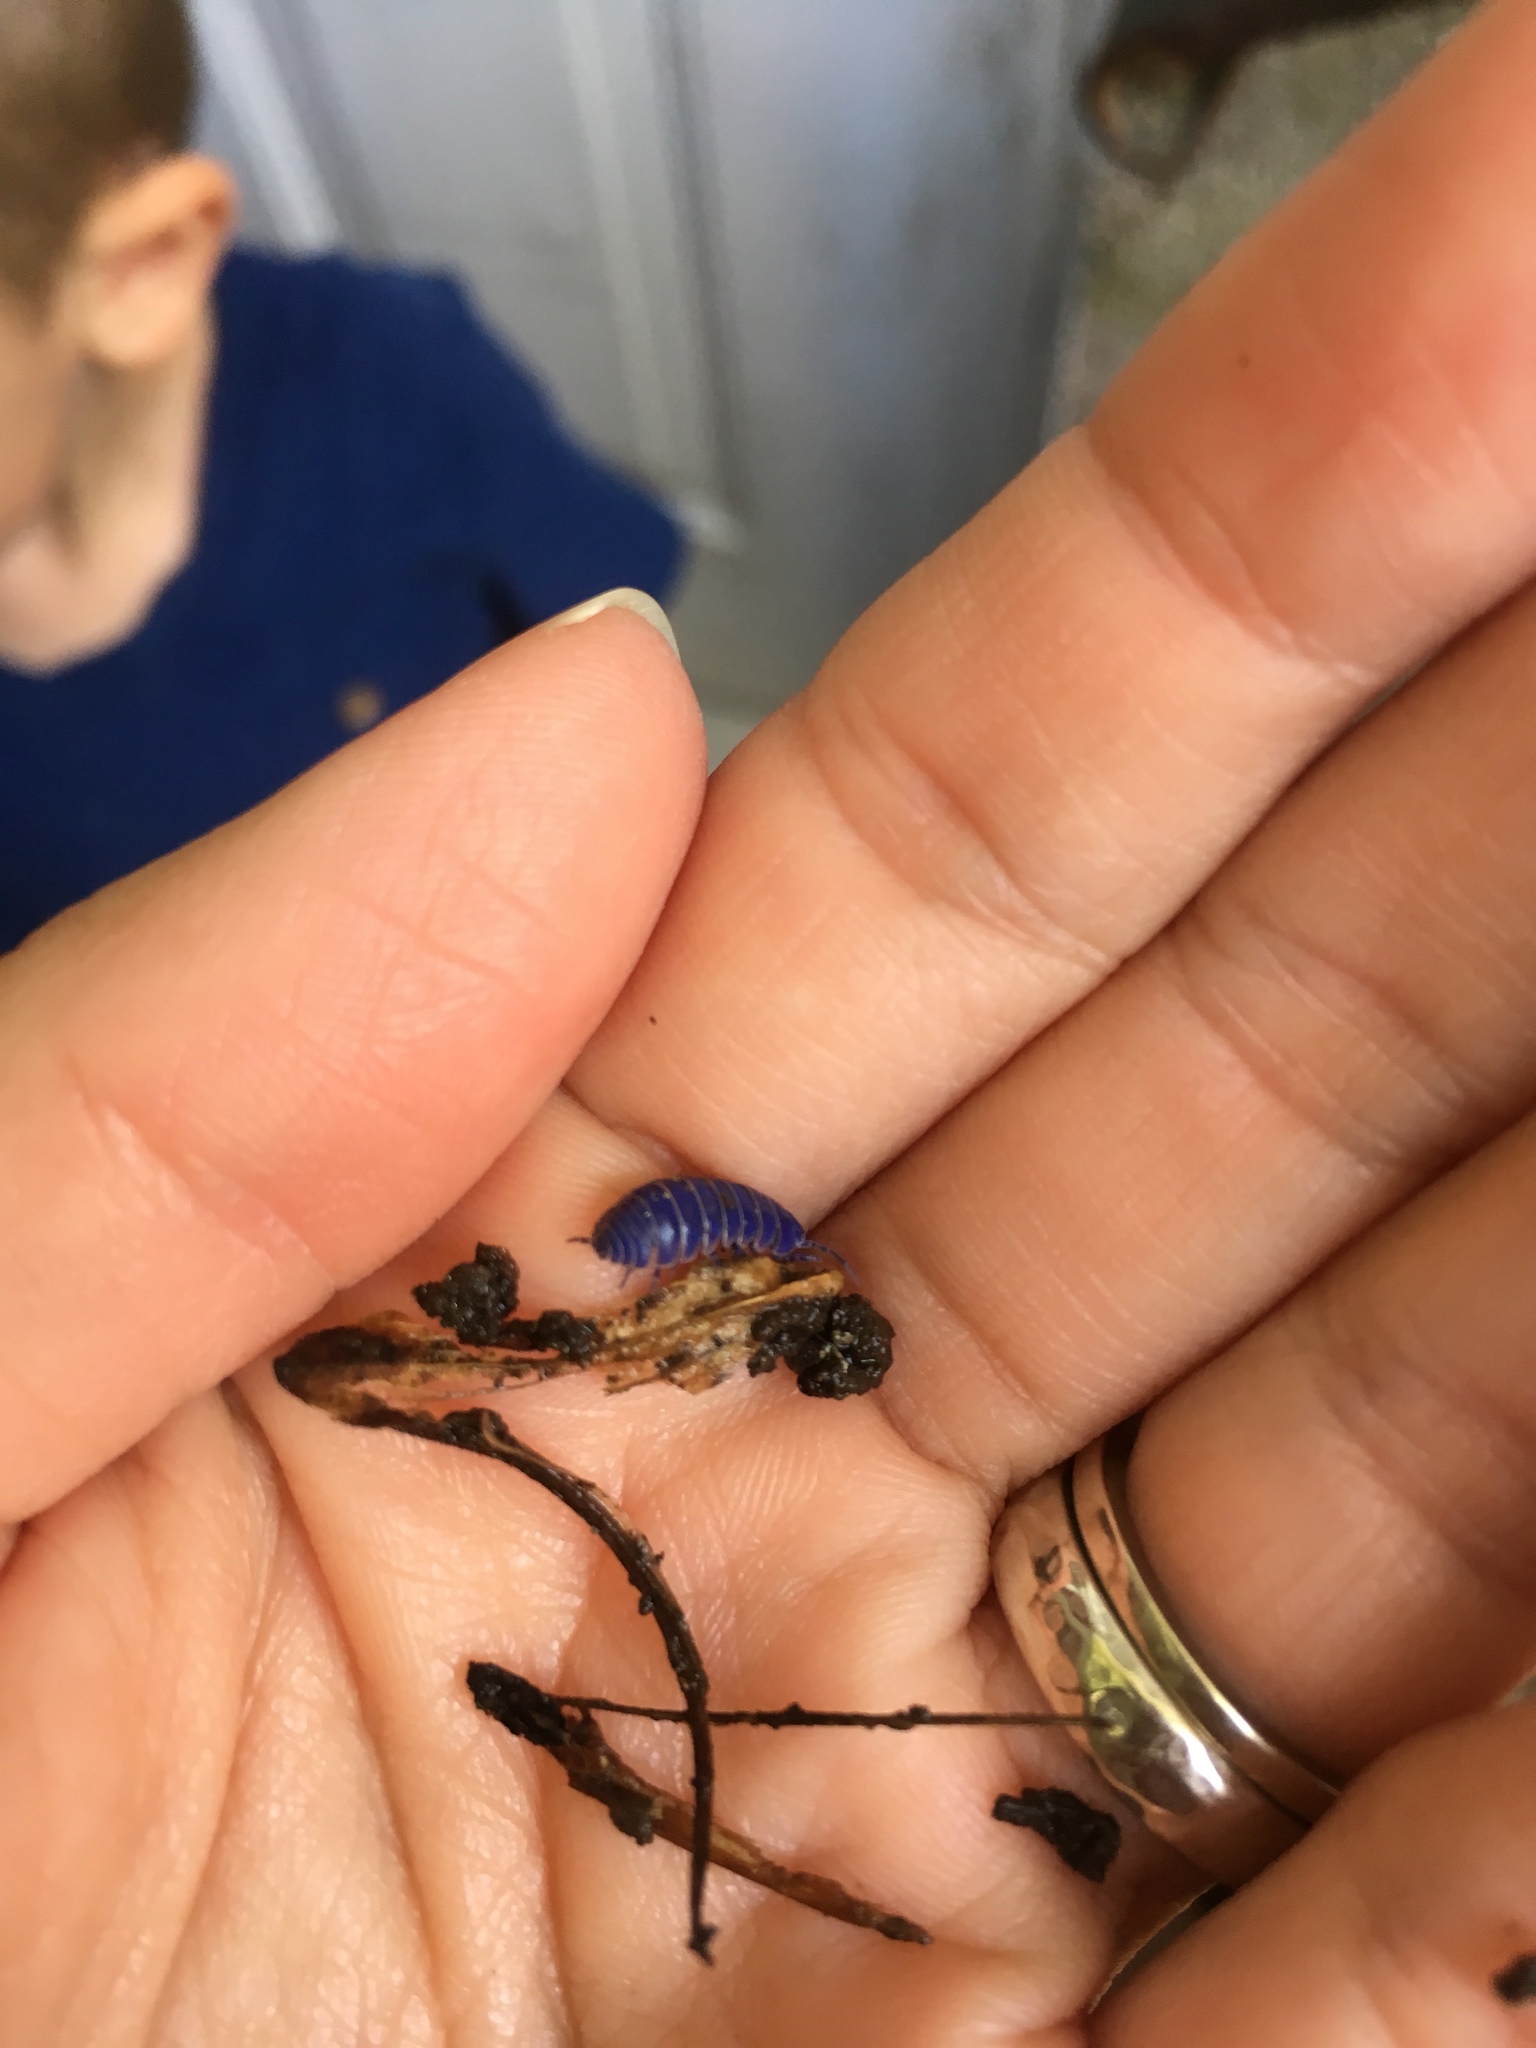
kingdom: Animalia
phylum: Arthropoda
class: Malacostraca
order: Isopoda
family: Armadillidiidae
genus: Armadillidium
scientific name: Armadillidium vulgare
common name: Common pill woodlouse
